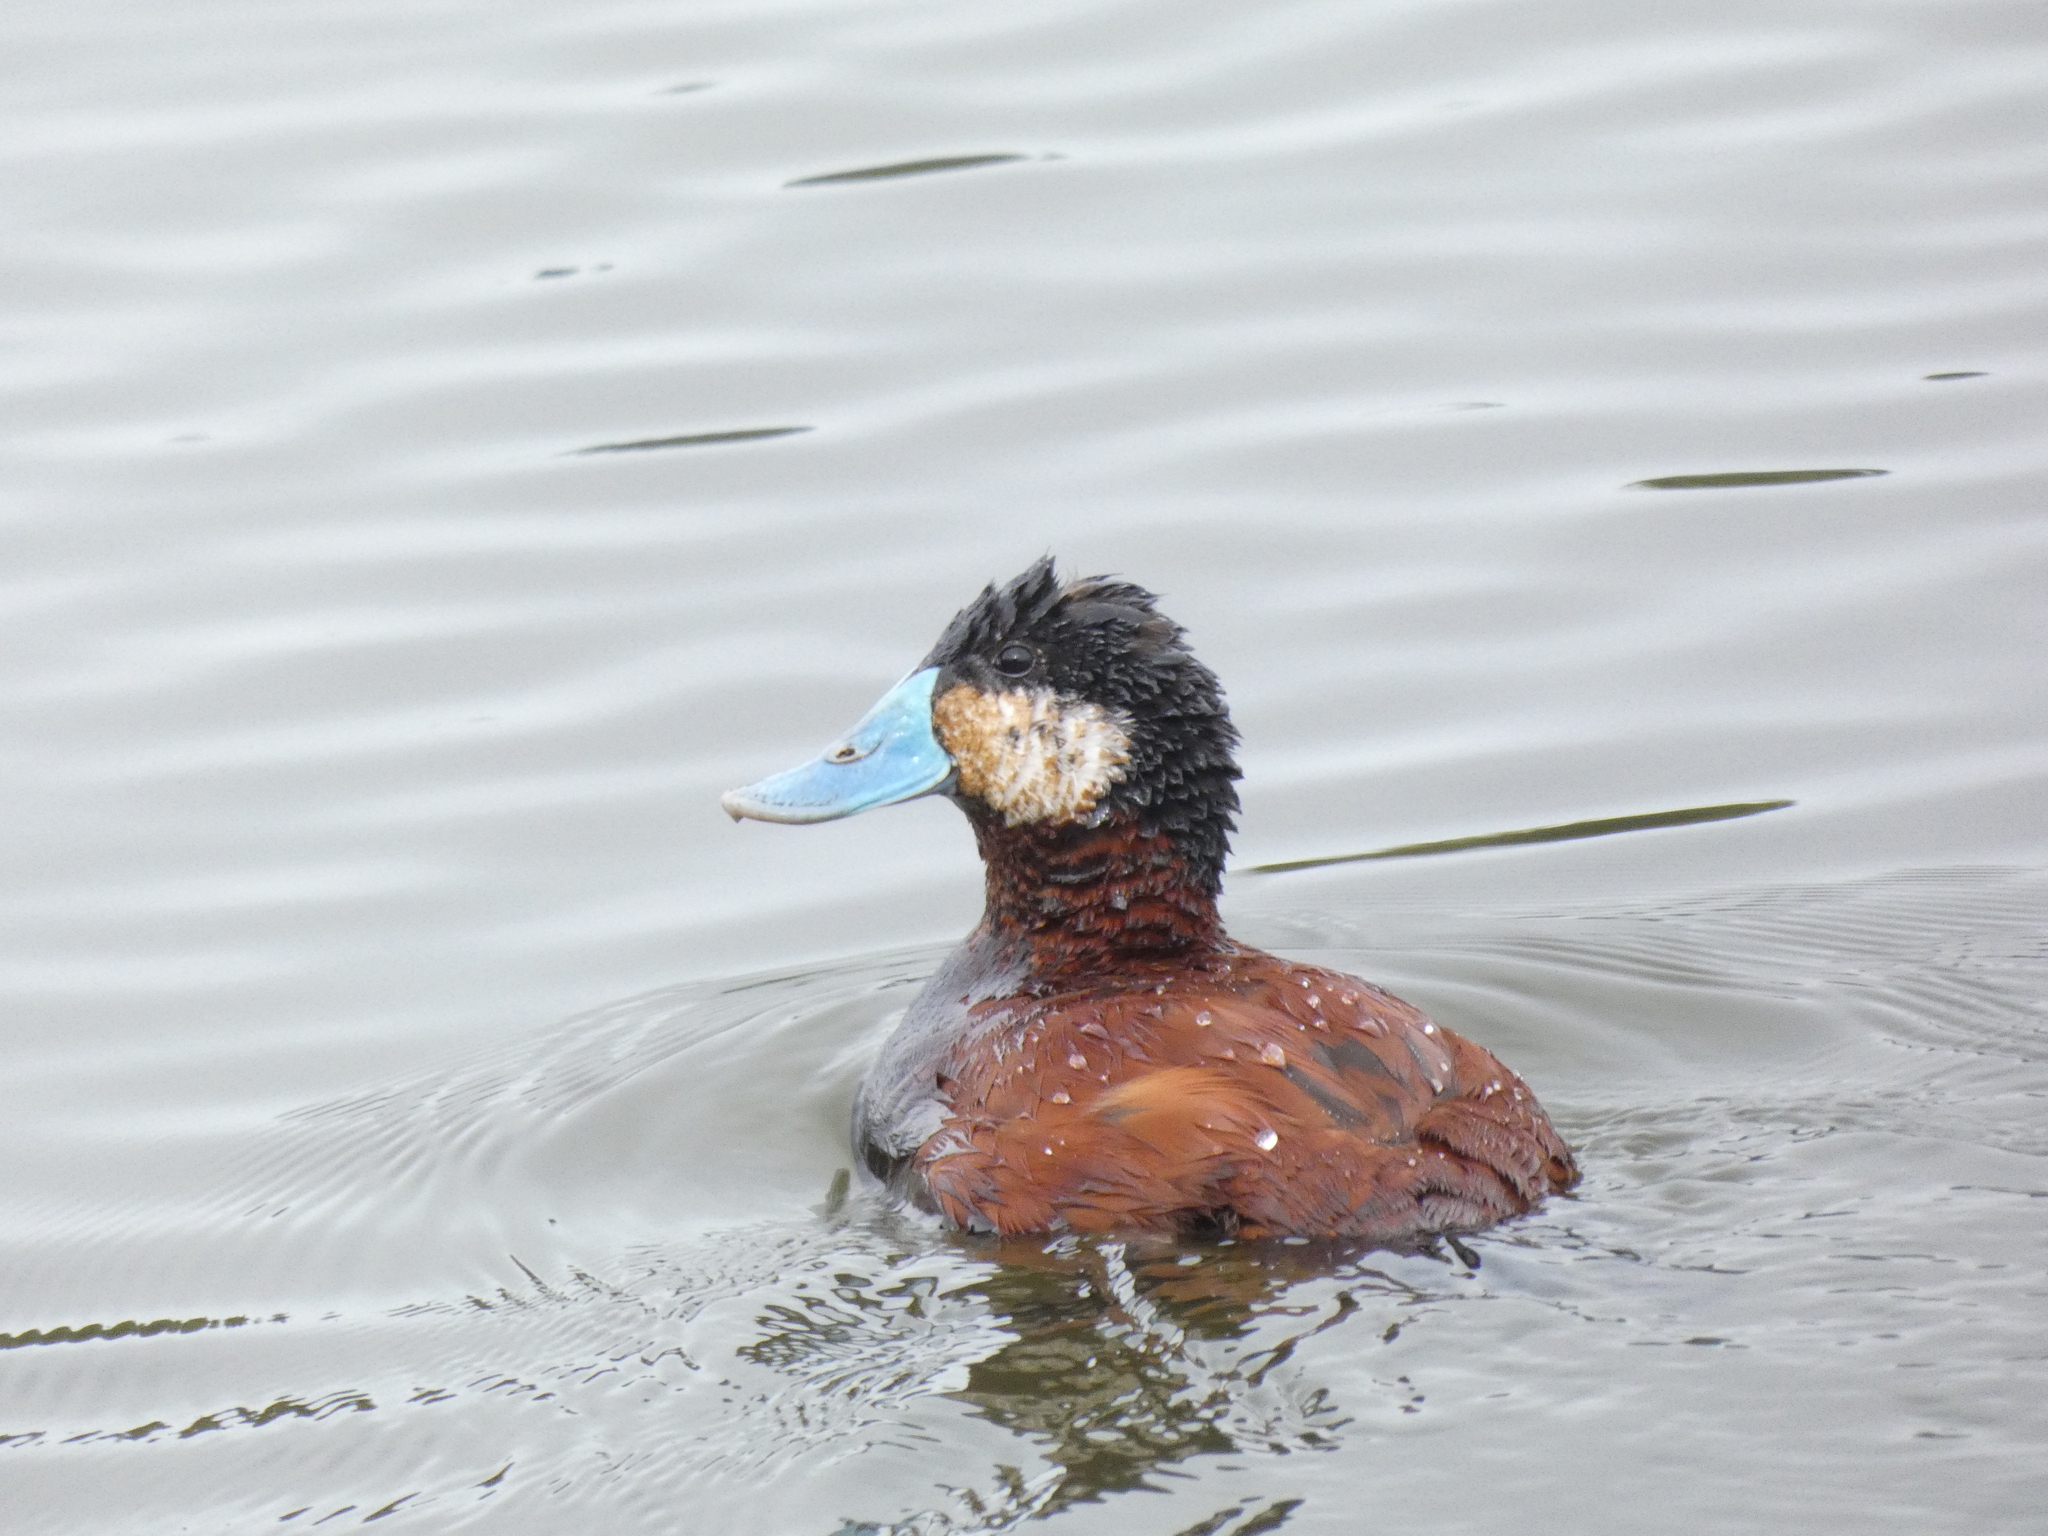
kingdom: Animalia
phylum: Chordata
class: Aves
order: Anseriformes
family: Anatidae
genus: Oxyura
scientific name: Oxyura ferruginea
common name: Andean duck
